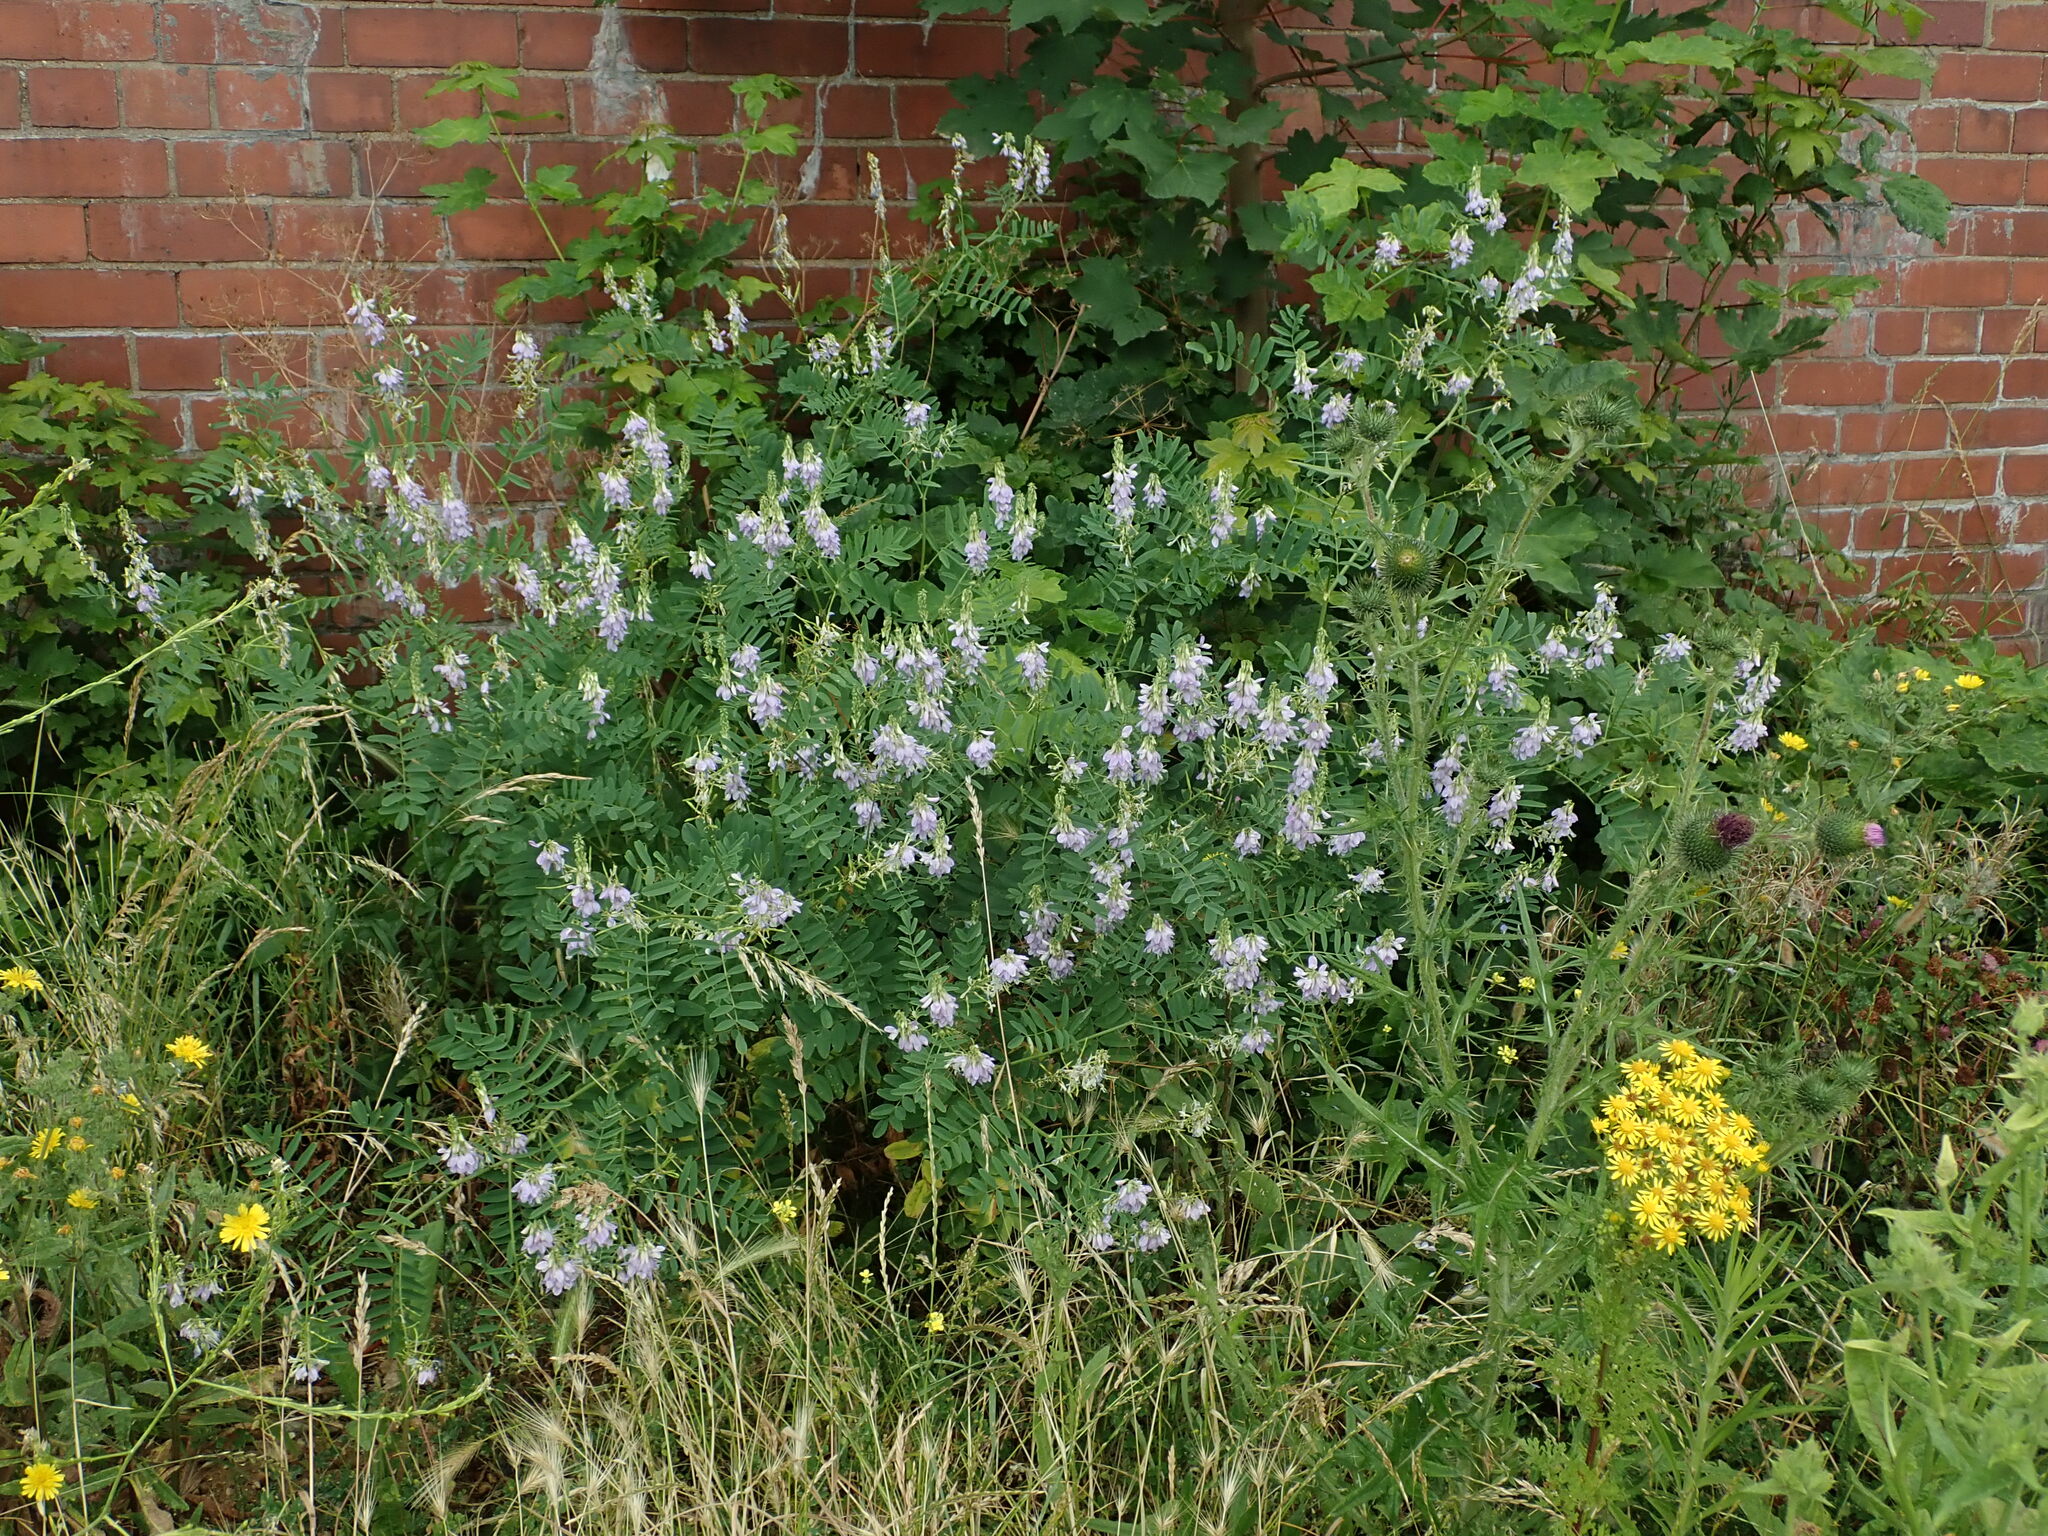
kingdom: Plantae
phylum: Tracheophyta
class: Magnoliopsida
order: Fabales
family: Fabaceae
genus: Galega
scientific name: Galega officinalis
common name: Goat's-rue
